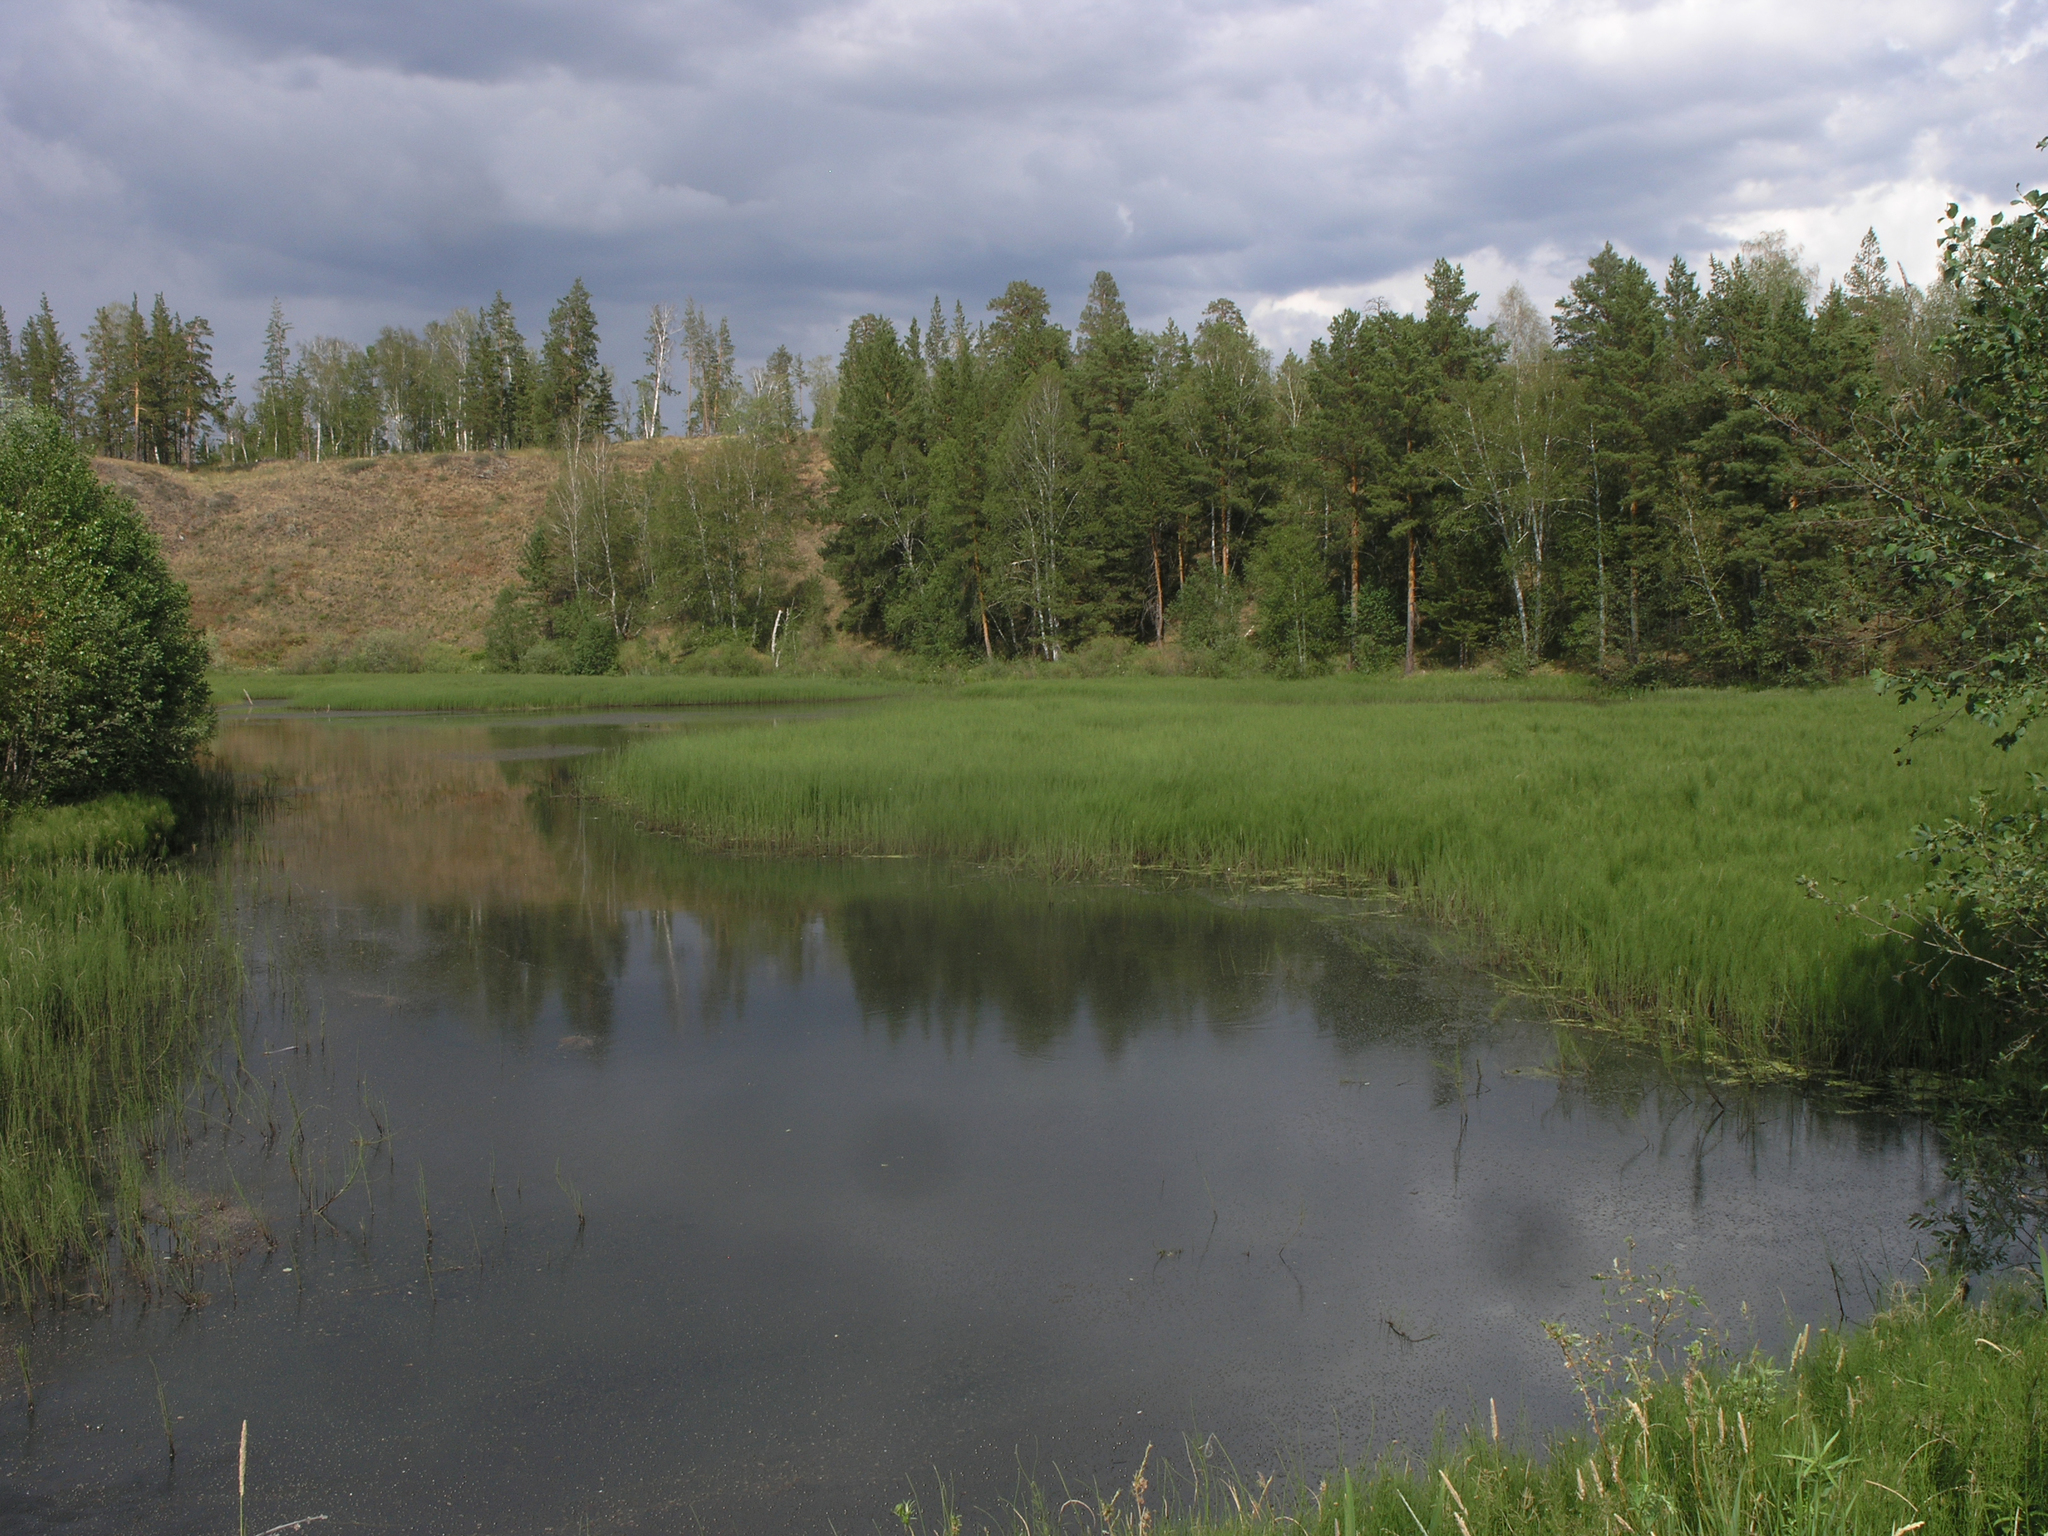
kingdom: Plantae
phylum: Tracheophyta
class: Pinopsida
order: Pinales
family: Pinaceae
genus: Pinus
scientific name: Pinus sylvestris
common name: Scots pine
